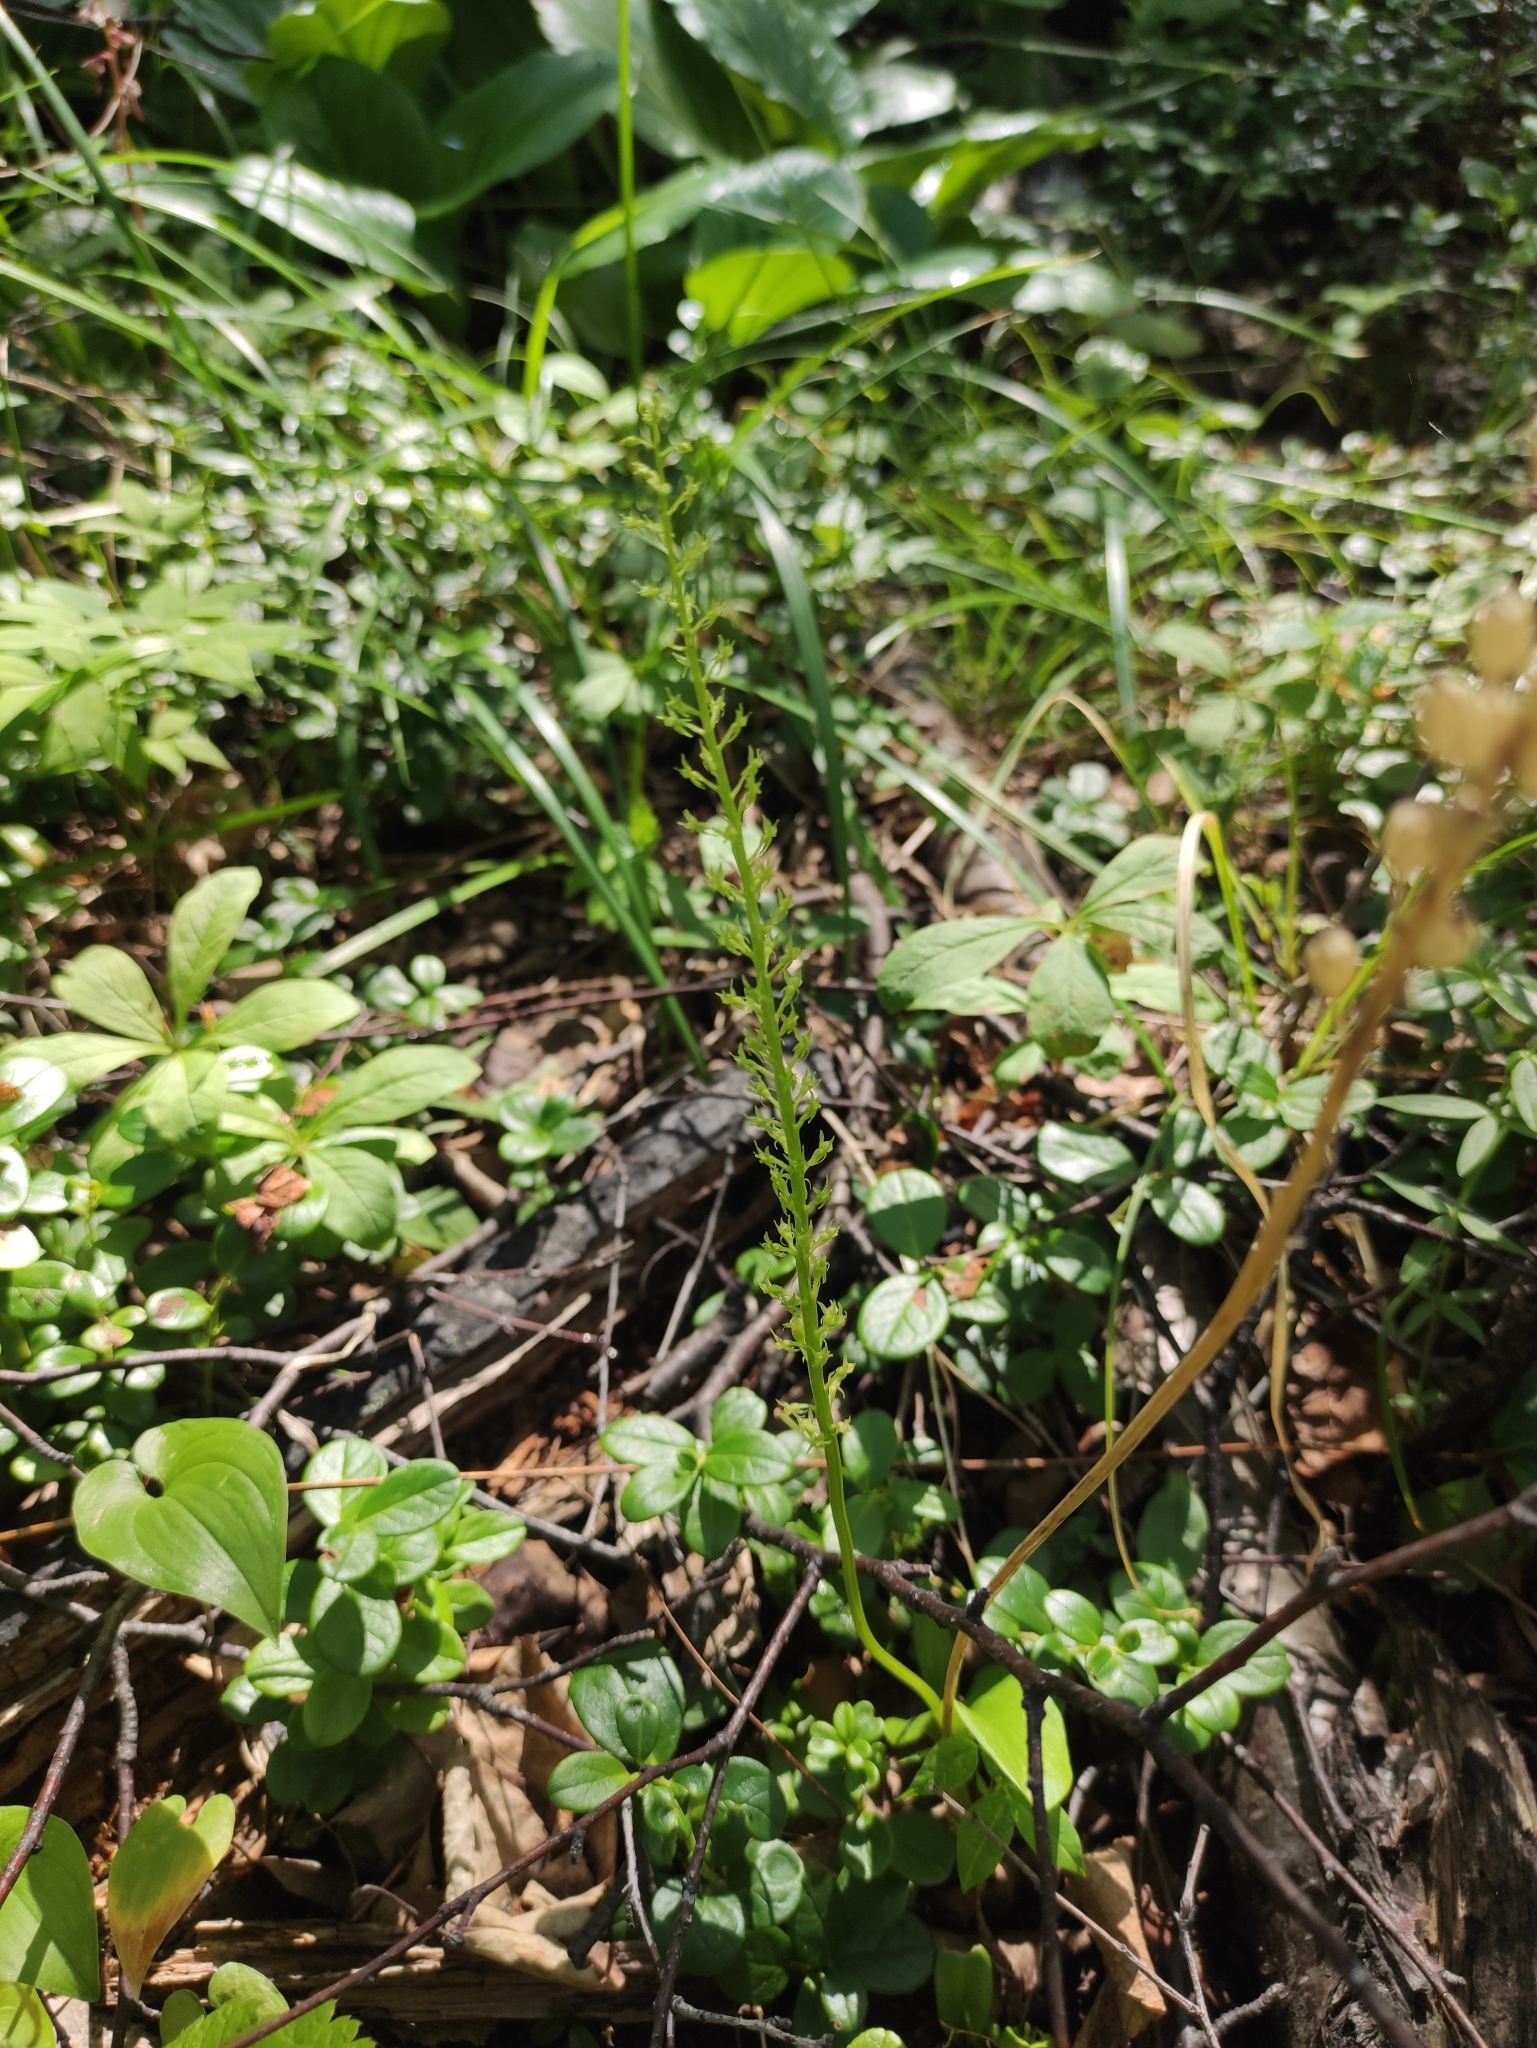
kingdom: Plantae
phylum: Tracheophyta
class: Liliopsida
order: Asparagales
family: Orchidaceae
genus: Malaxis
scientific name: Malaxis monophyllos
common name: White adder's-mouth
